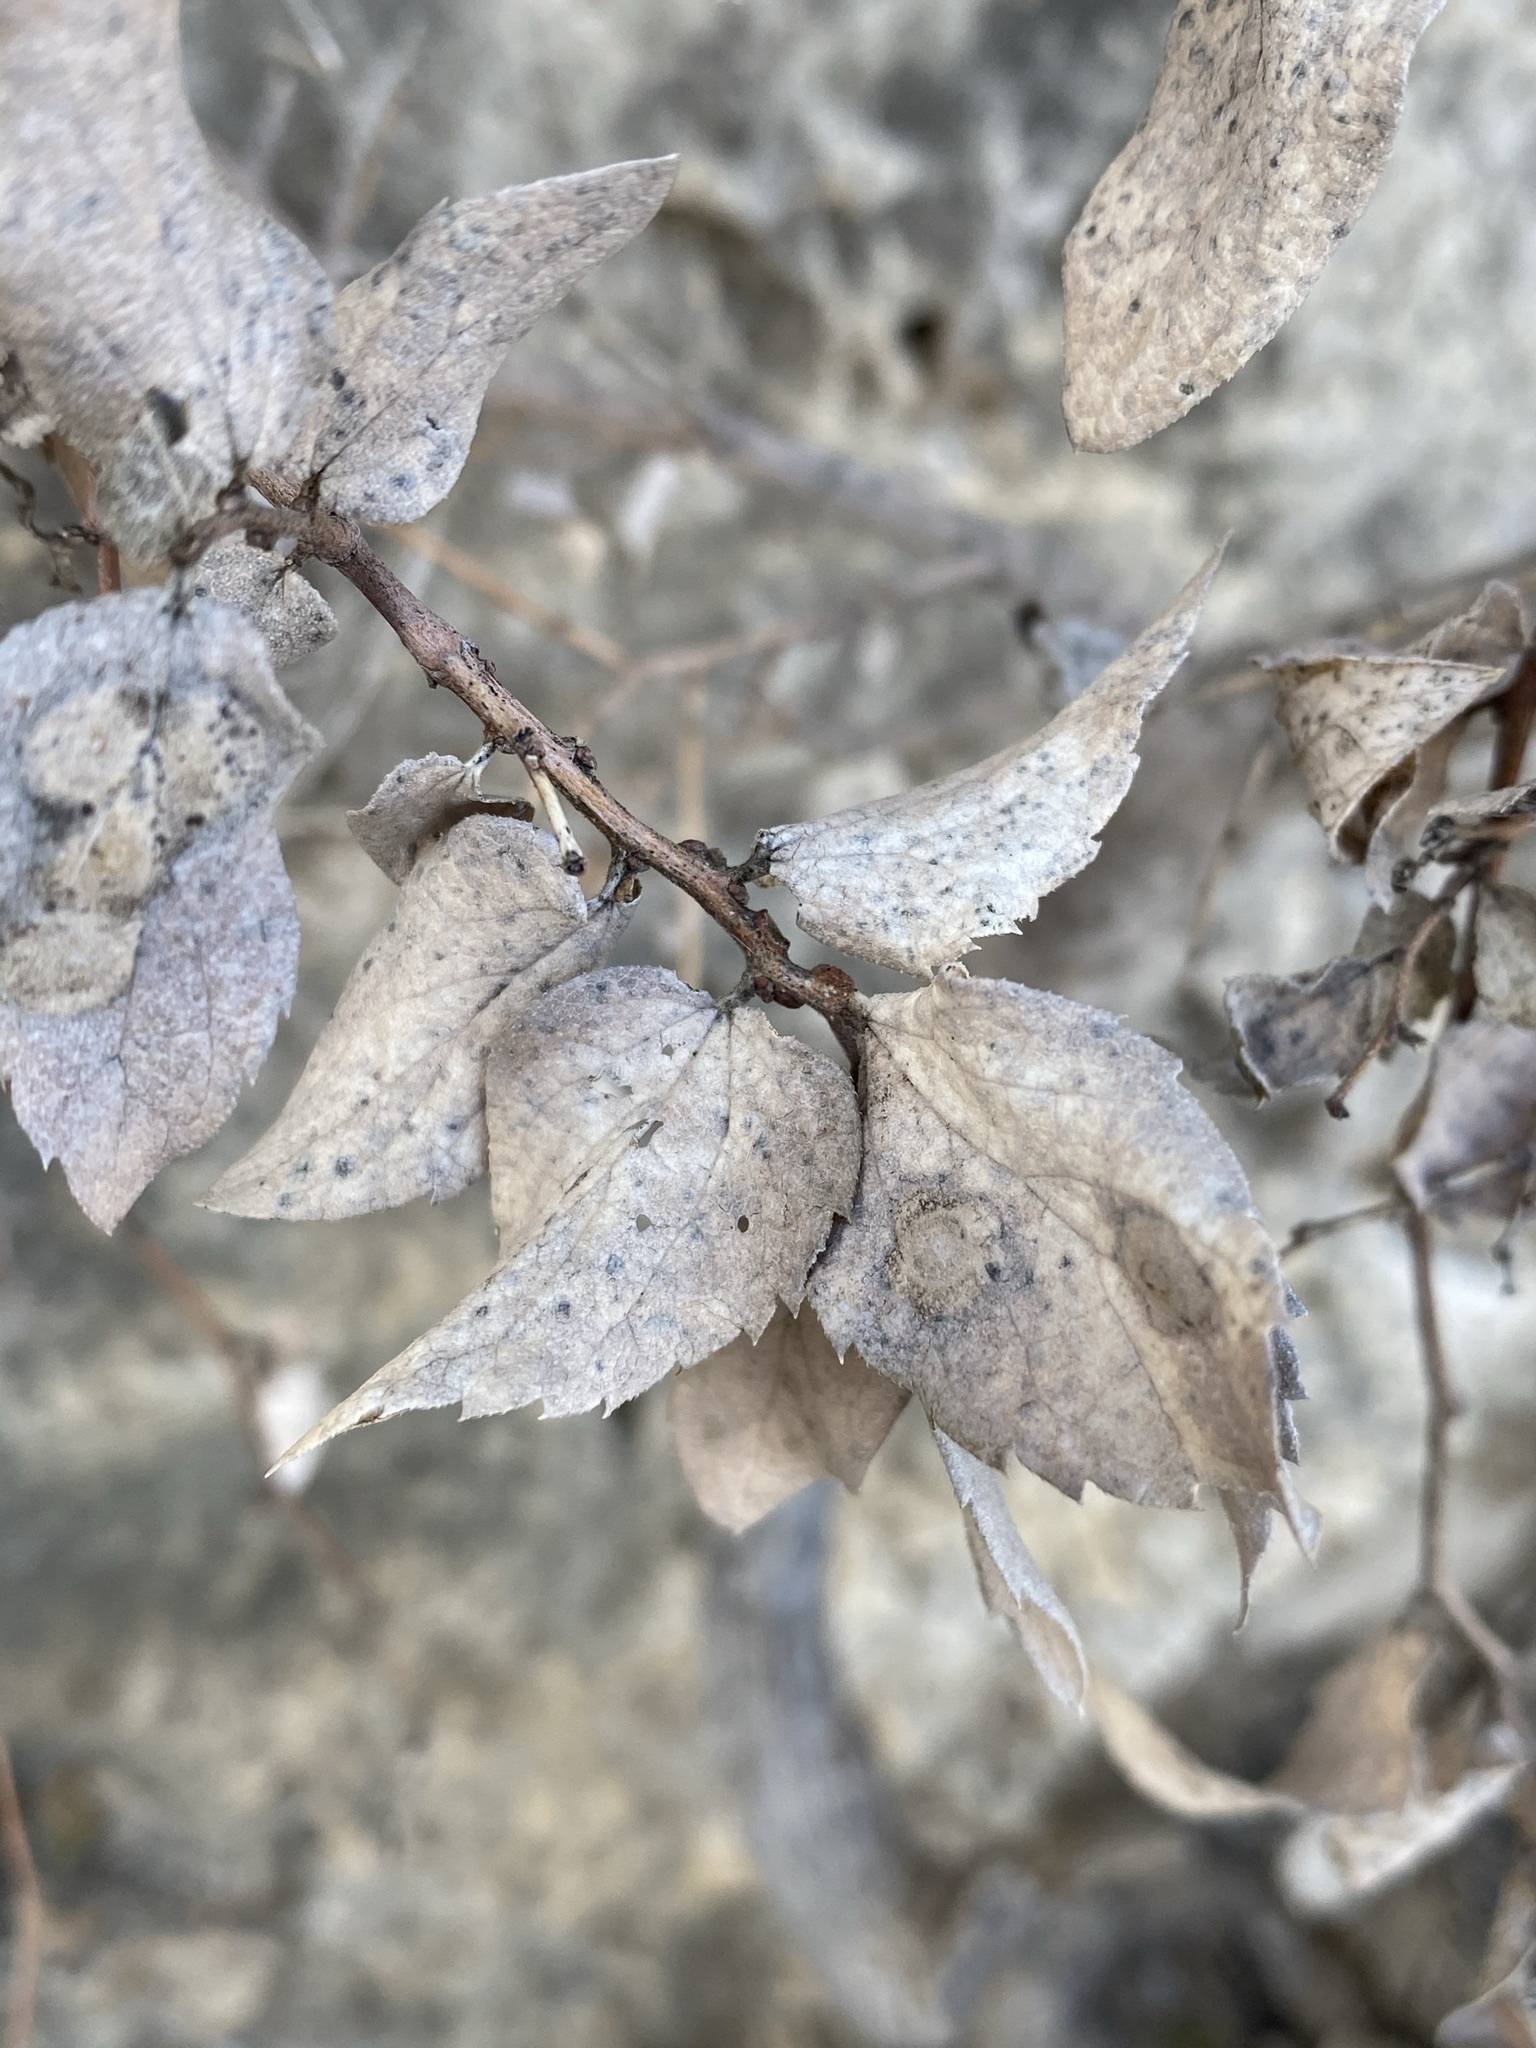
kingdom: Plantae
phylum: Tracheophyta
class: Magnoliopsida
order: Rosales
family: Cannabaceae
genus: Celtis
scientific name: Celtis reticulata
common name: Netleaf hackberry
